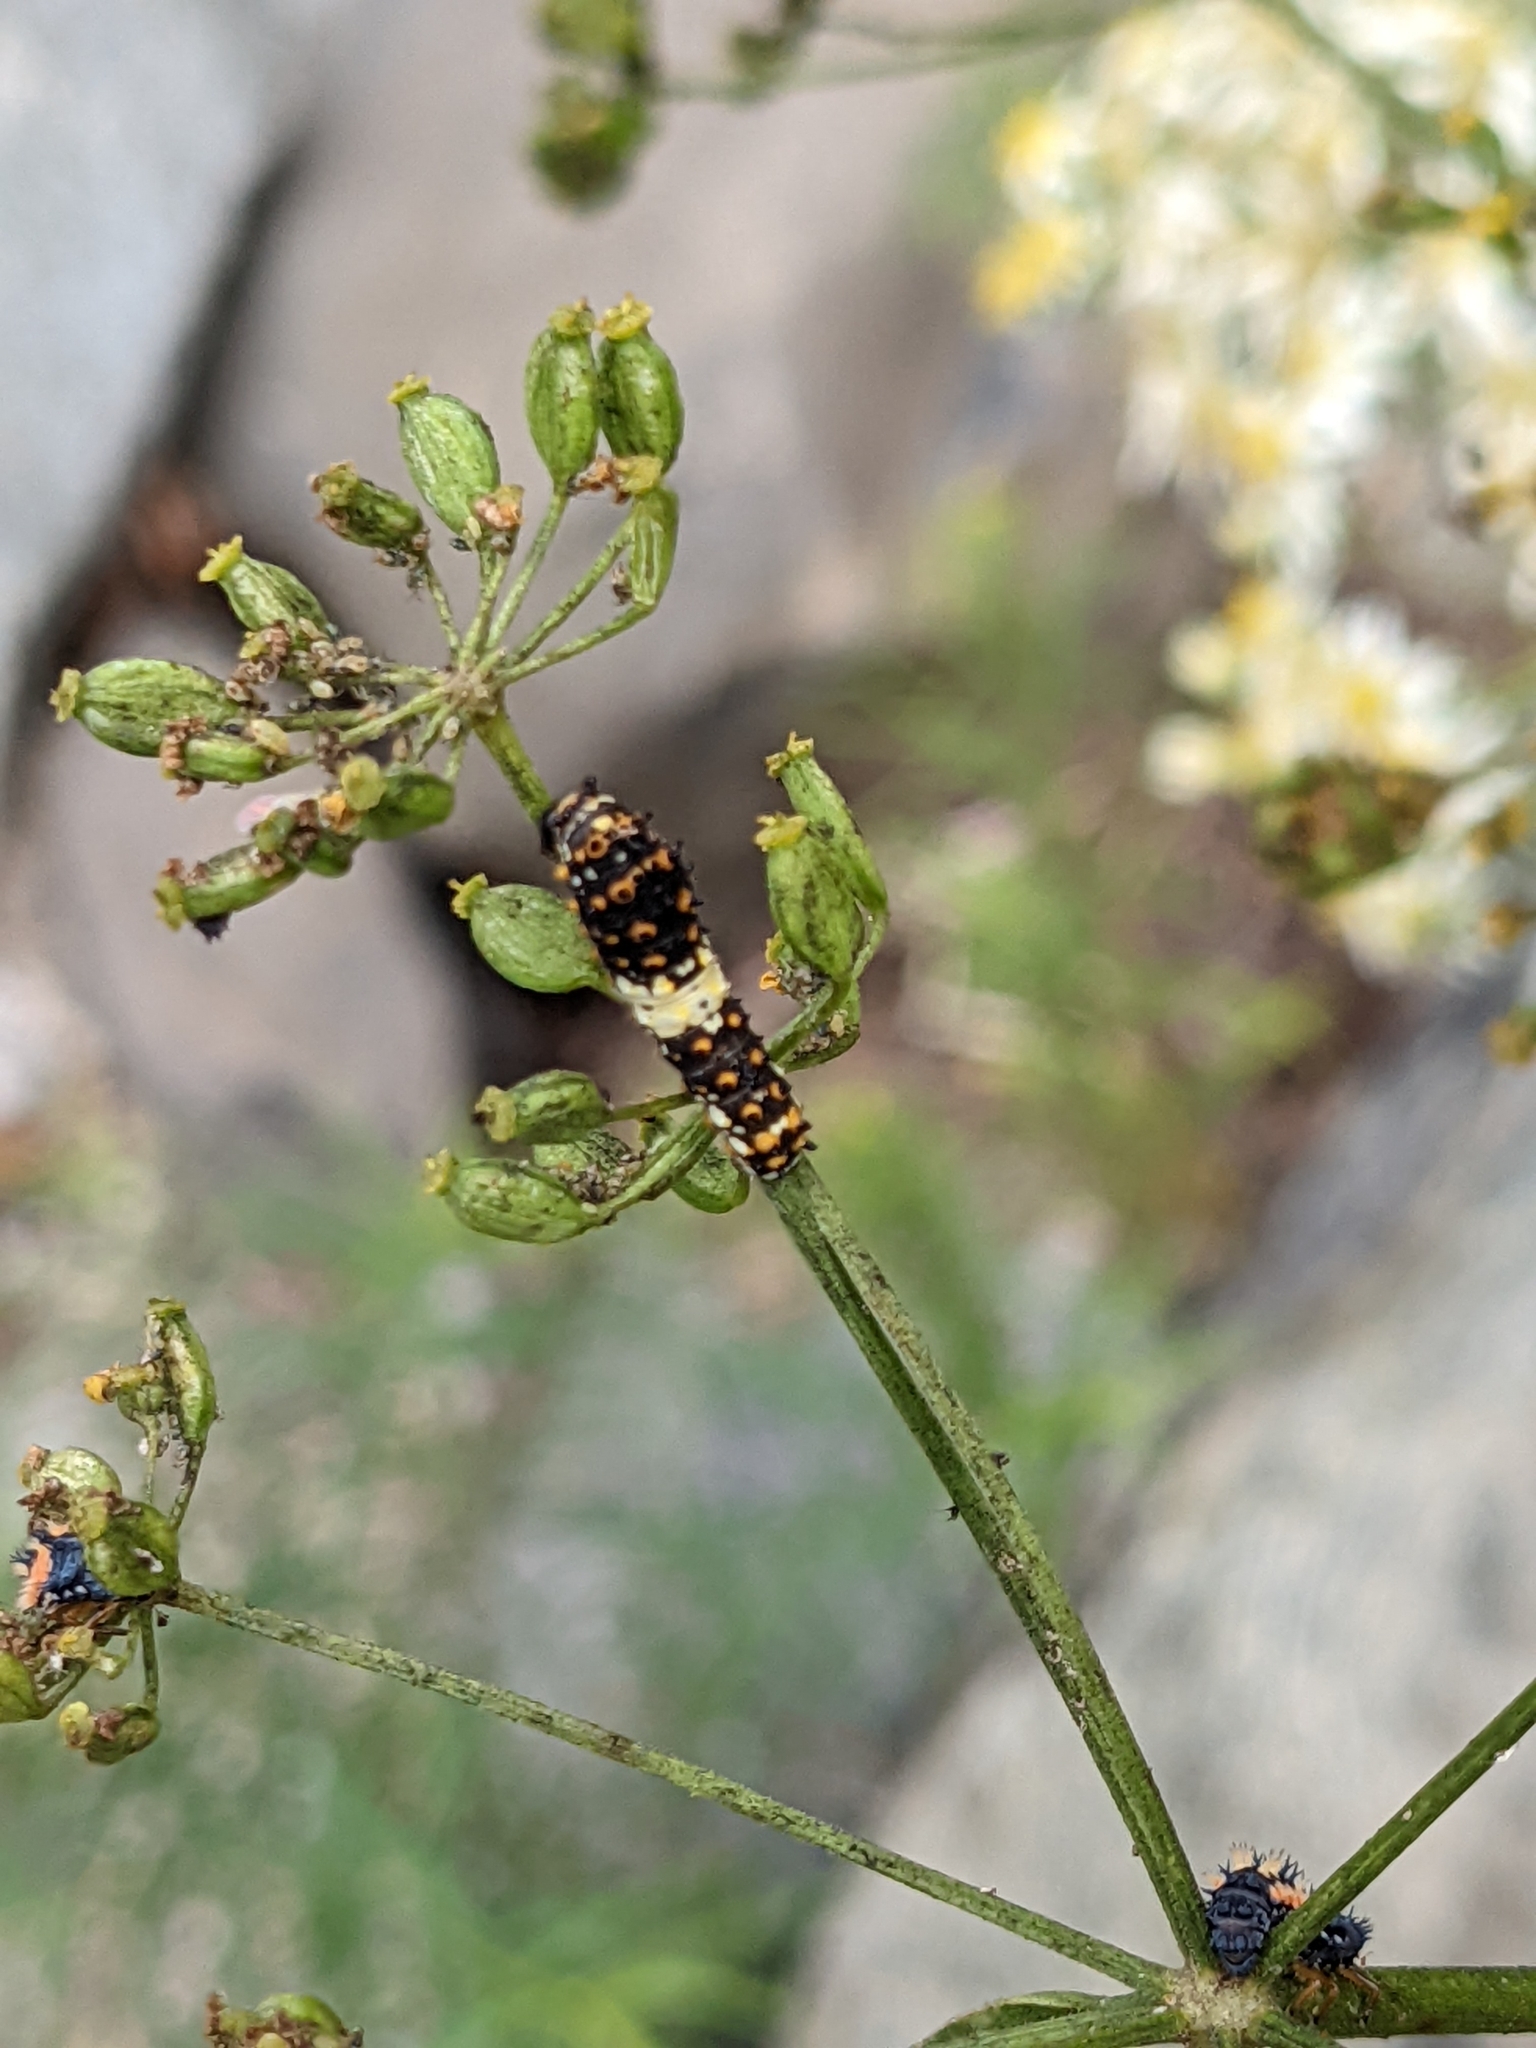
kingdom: Animalia
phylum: Arthropoda
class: Insecta
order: Lepidoptera
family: Papilionidae
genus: Papilio
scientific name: Papilio polyxenes
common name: Black swallowtail
